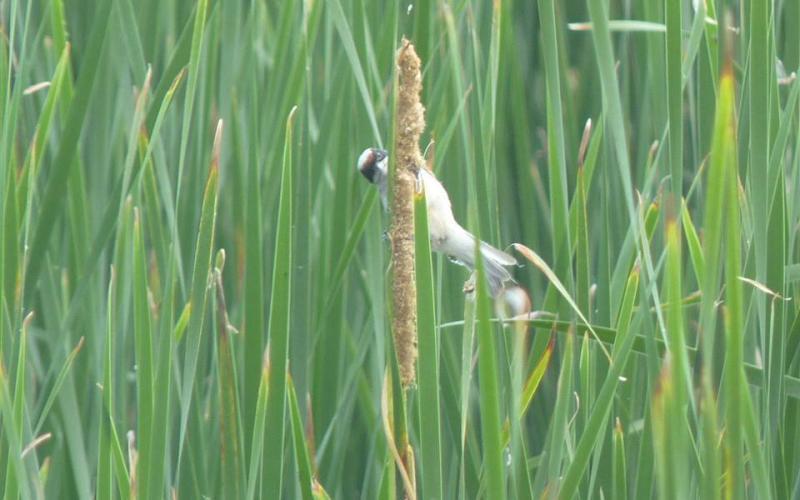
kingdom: Animalia
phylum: Chordata
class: Aves
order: Passeriformes
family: Remizidae
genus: Remiz
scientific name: Remiz pendulinus
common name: Eurasian penduline tit
